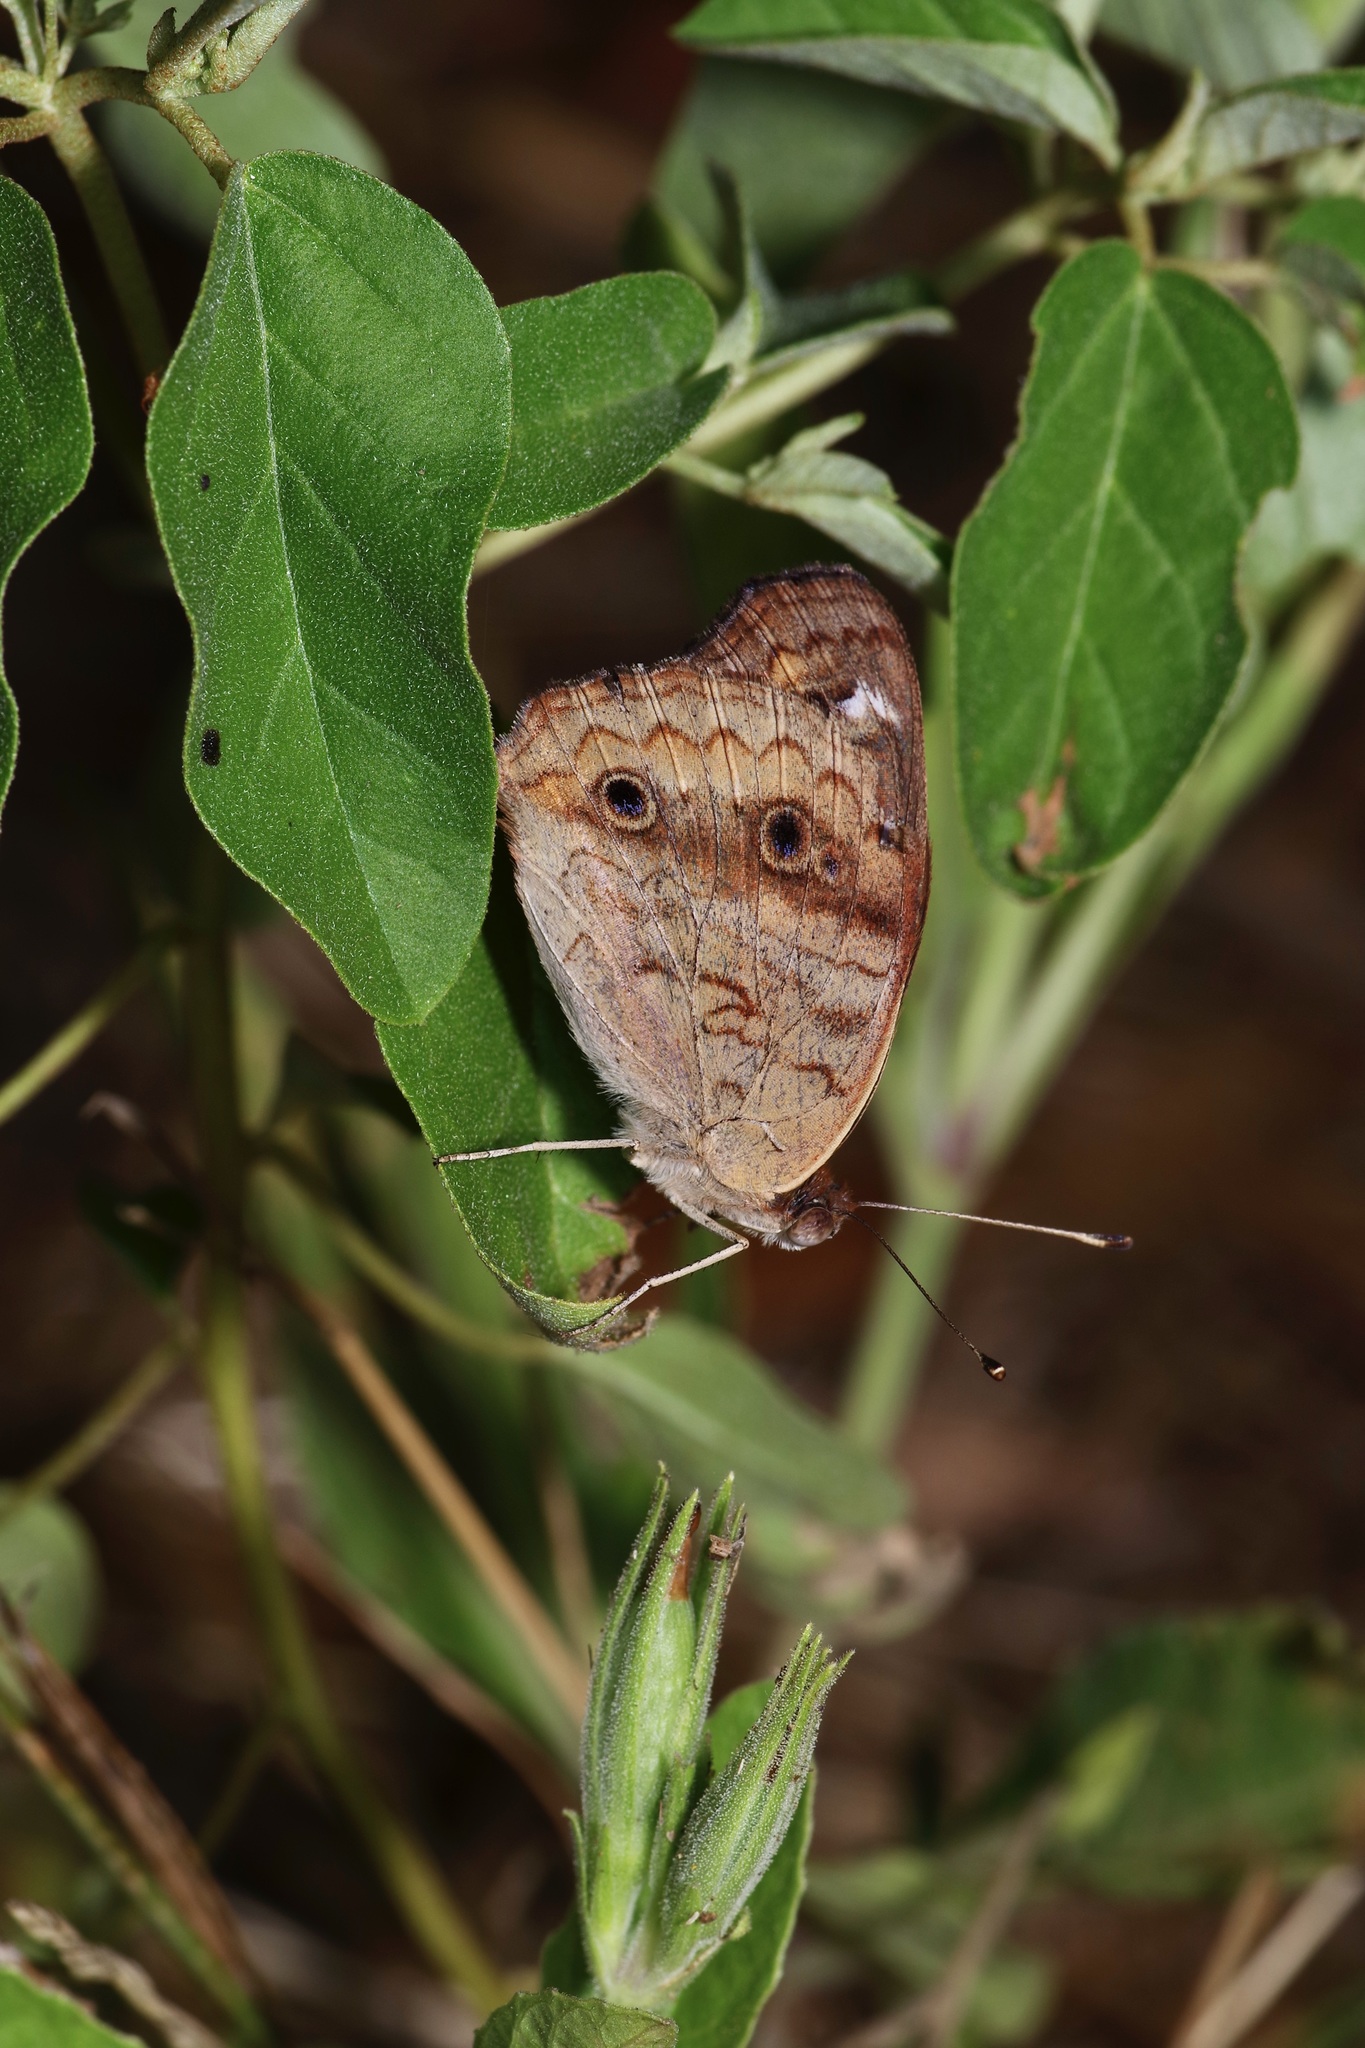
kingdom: Animalia
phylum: Arthropoda
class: Insecta
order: Lepidoptera
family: Nymphalidae
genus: Junonia
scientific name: Junonia coenia
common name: Common buckeye
